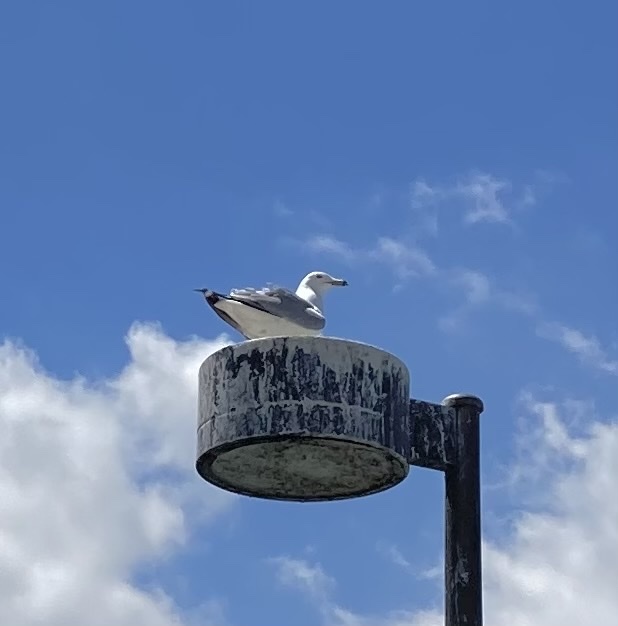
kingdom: Animalia
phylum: Chordata
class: Aves
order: Charadriiformes
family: Laridae
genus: Larus
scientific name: Larus delawarensis
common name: Ring-billed gull
